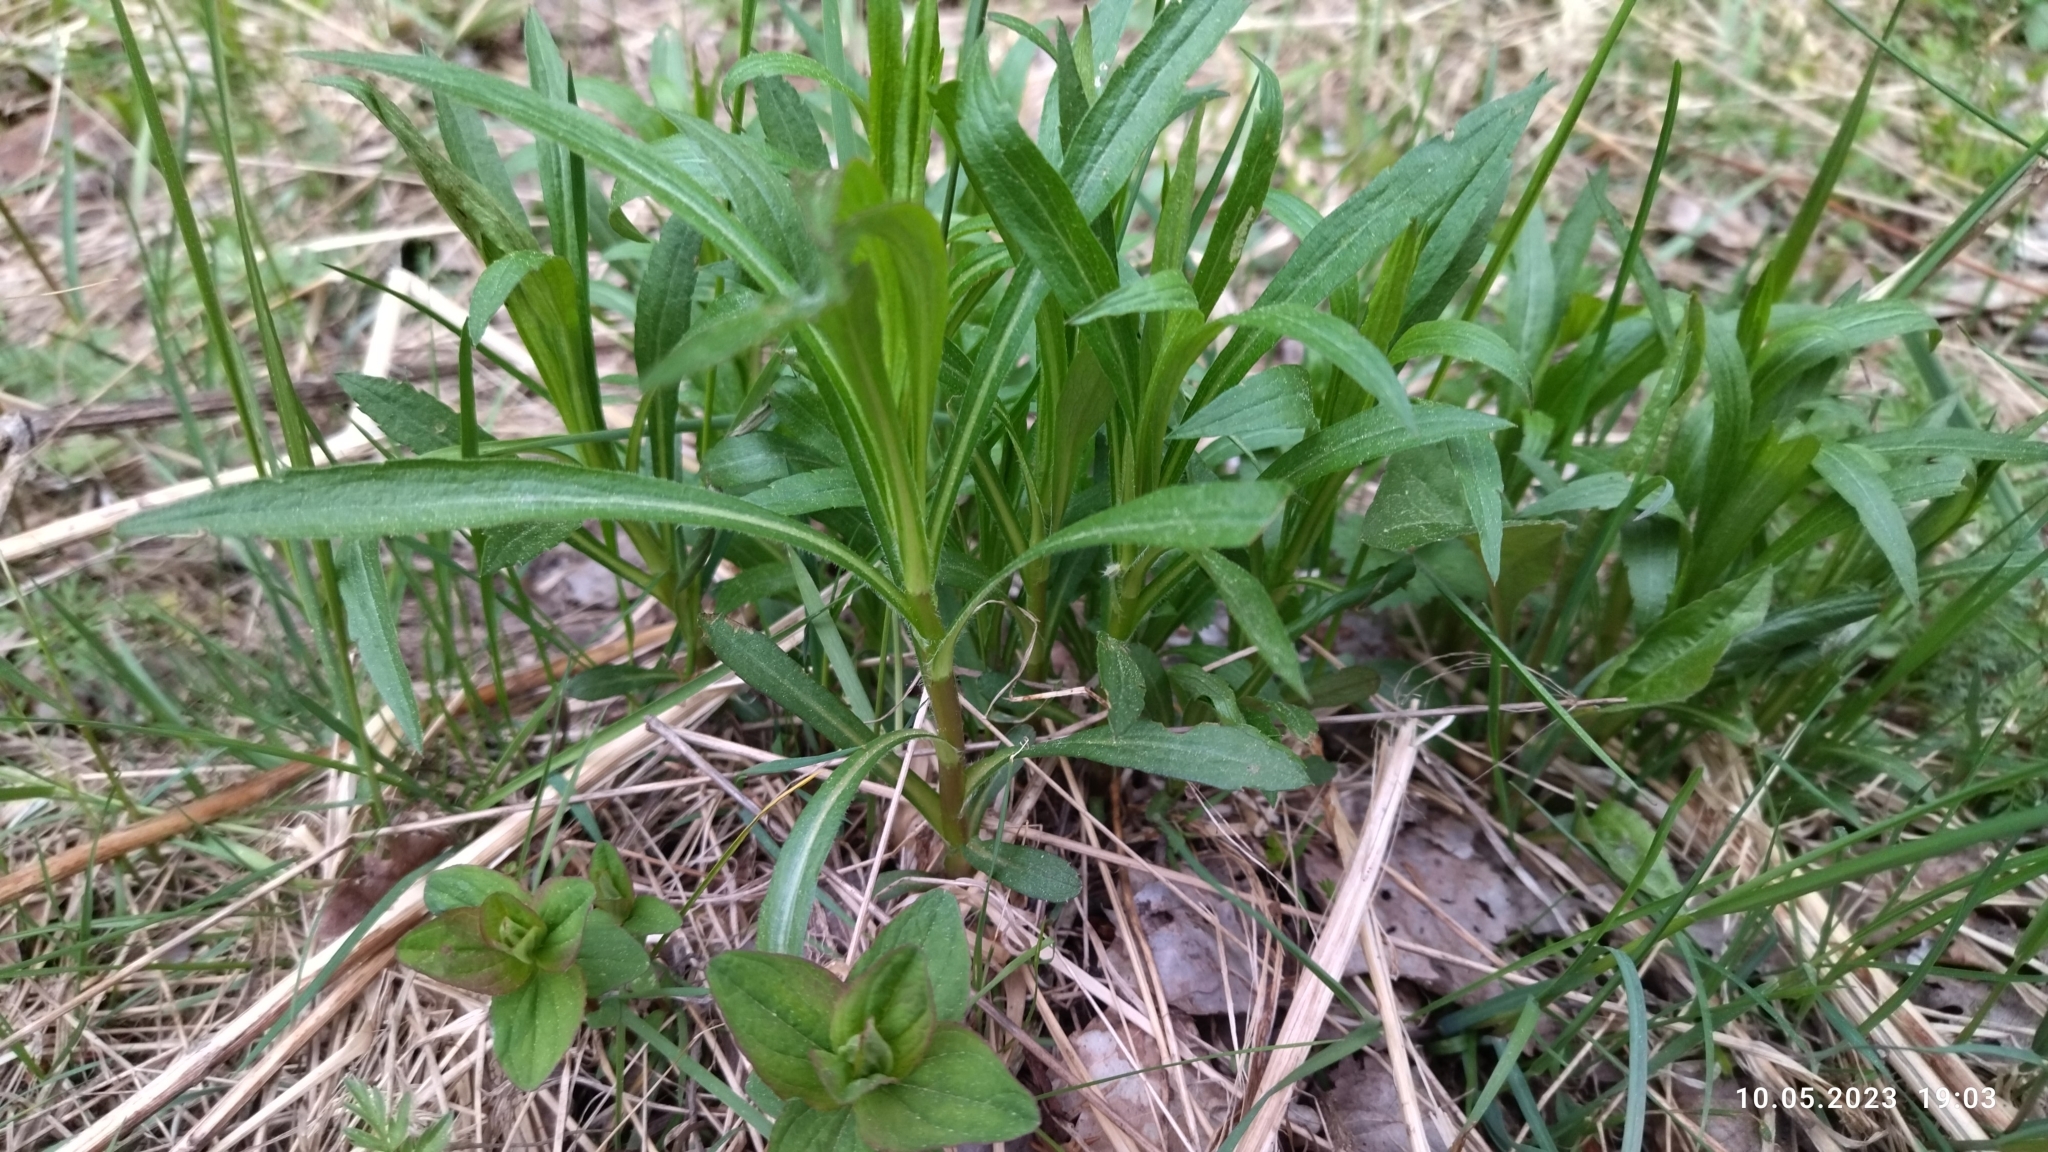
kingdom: Plantae
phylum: Tracheophyta
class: Magnoliopsida
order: Asterales
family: Asteraceae
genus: Solidago
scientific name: Solidago canadensis
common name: Canada goldenrod
